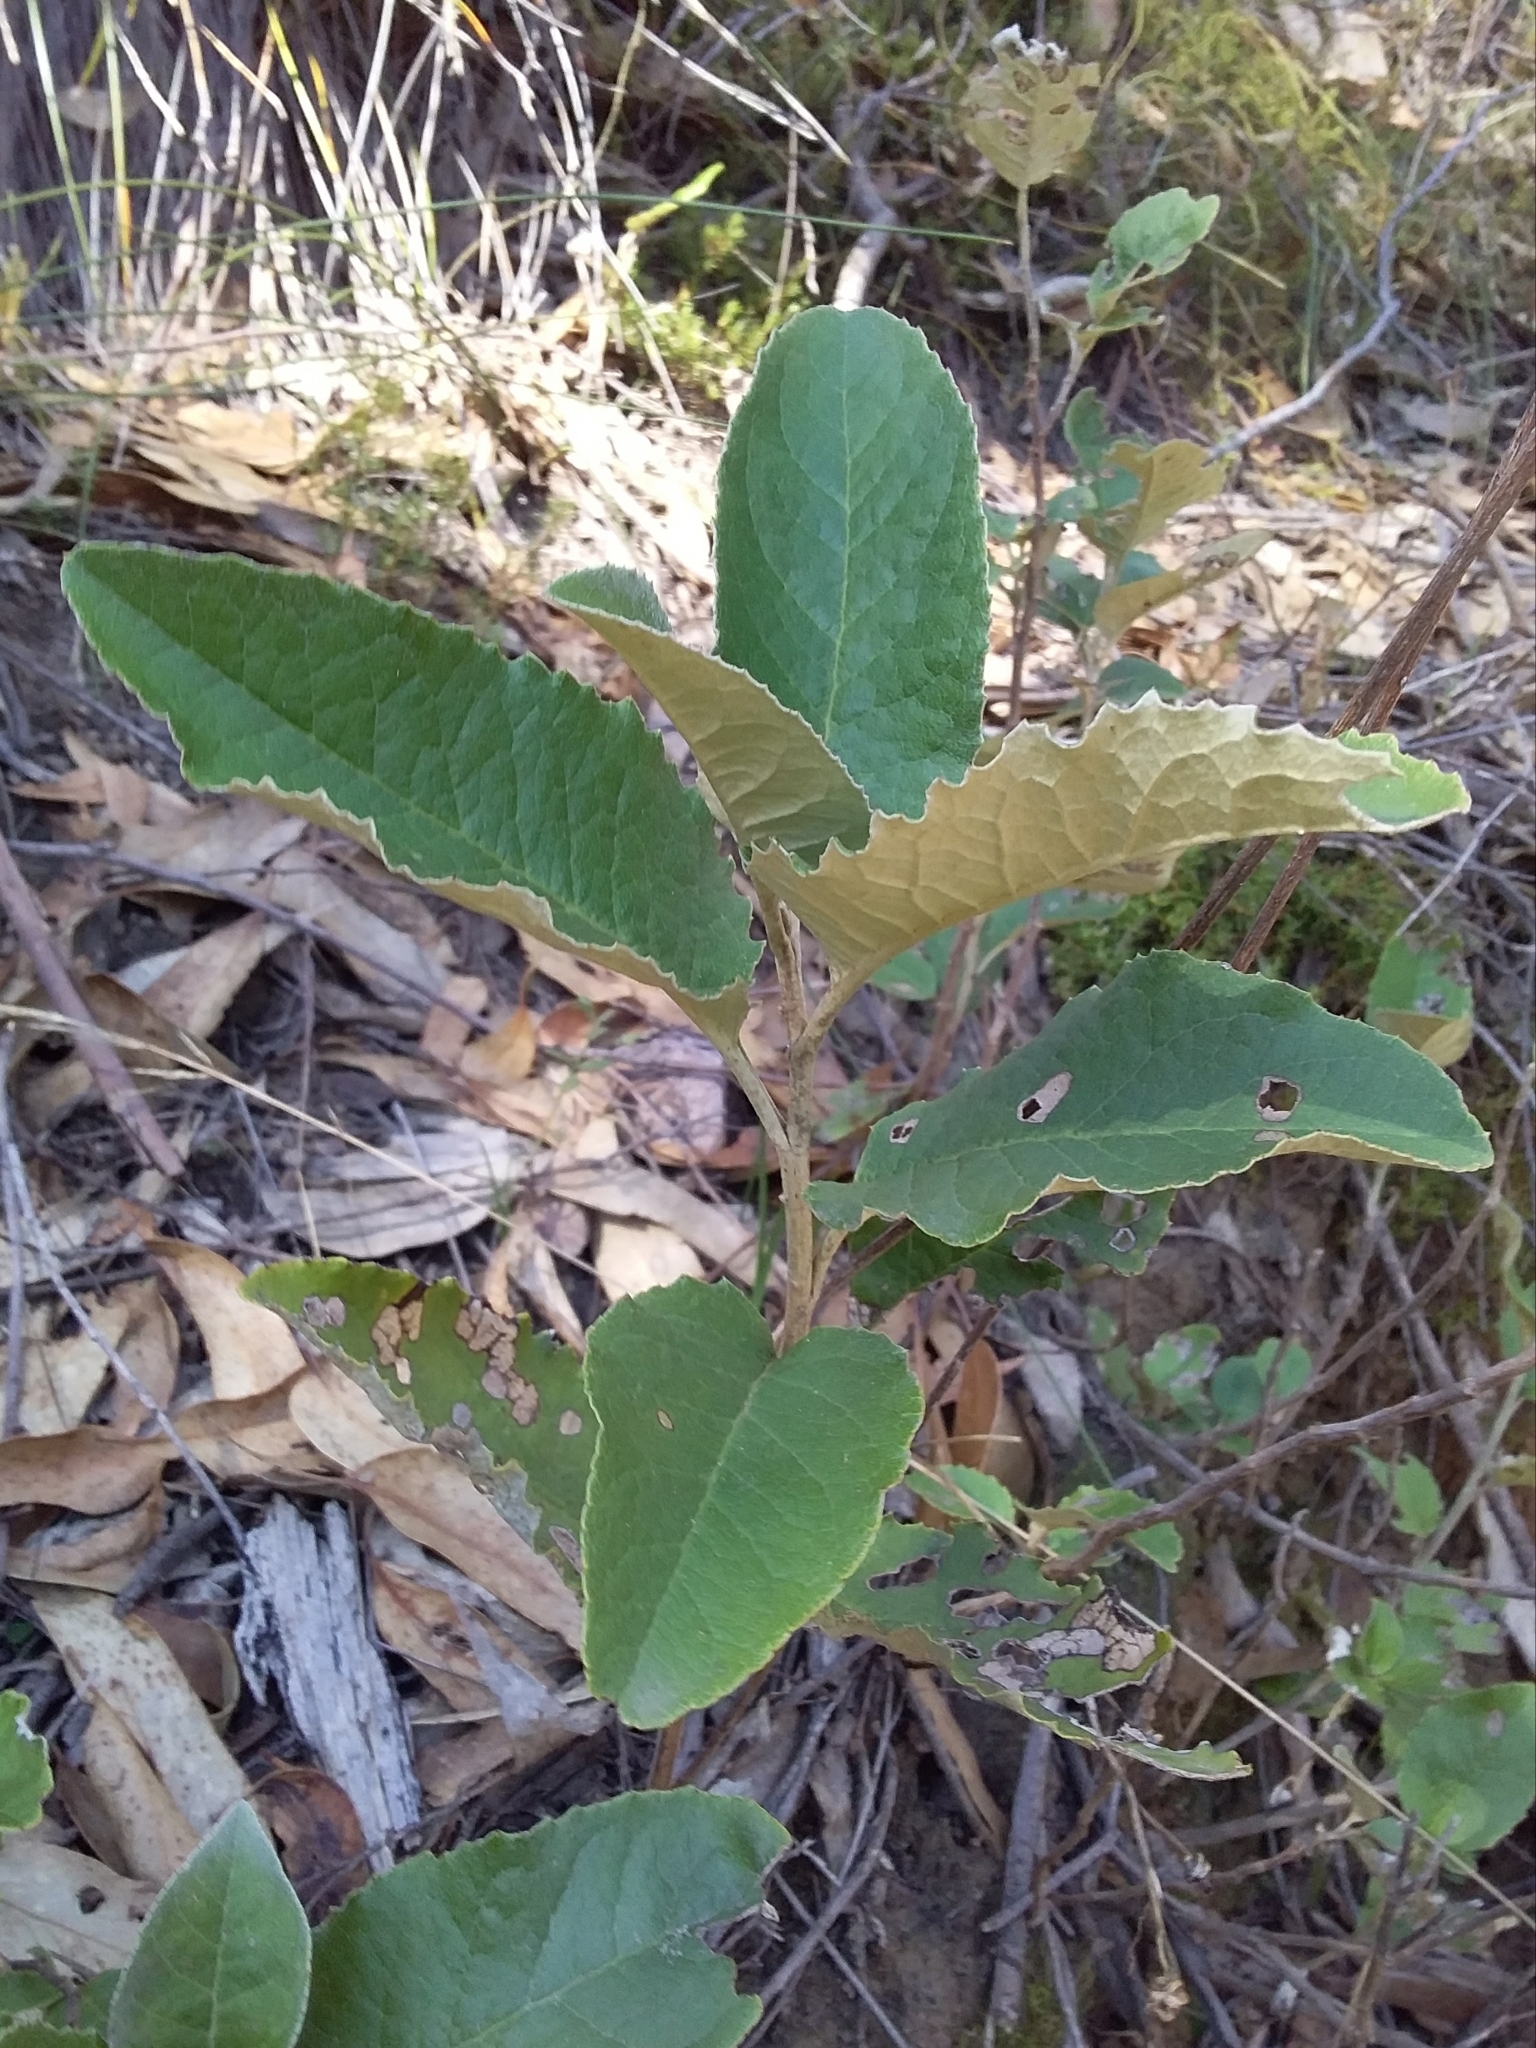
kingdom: Plantae
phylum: Tracheophyta
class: Magnoliopsida
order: Asterales
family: Asteraceae
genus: Olearia
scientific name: Olearia grandiflora
